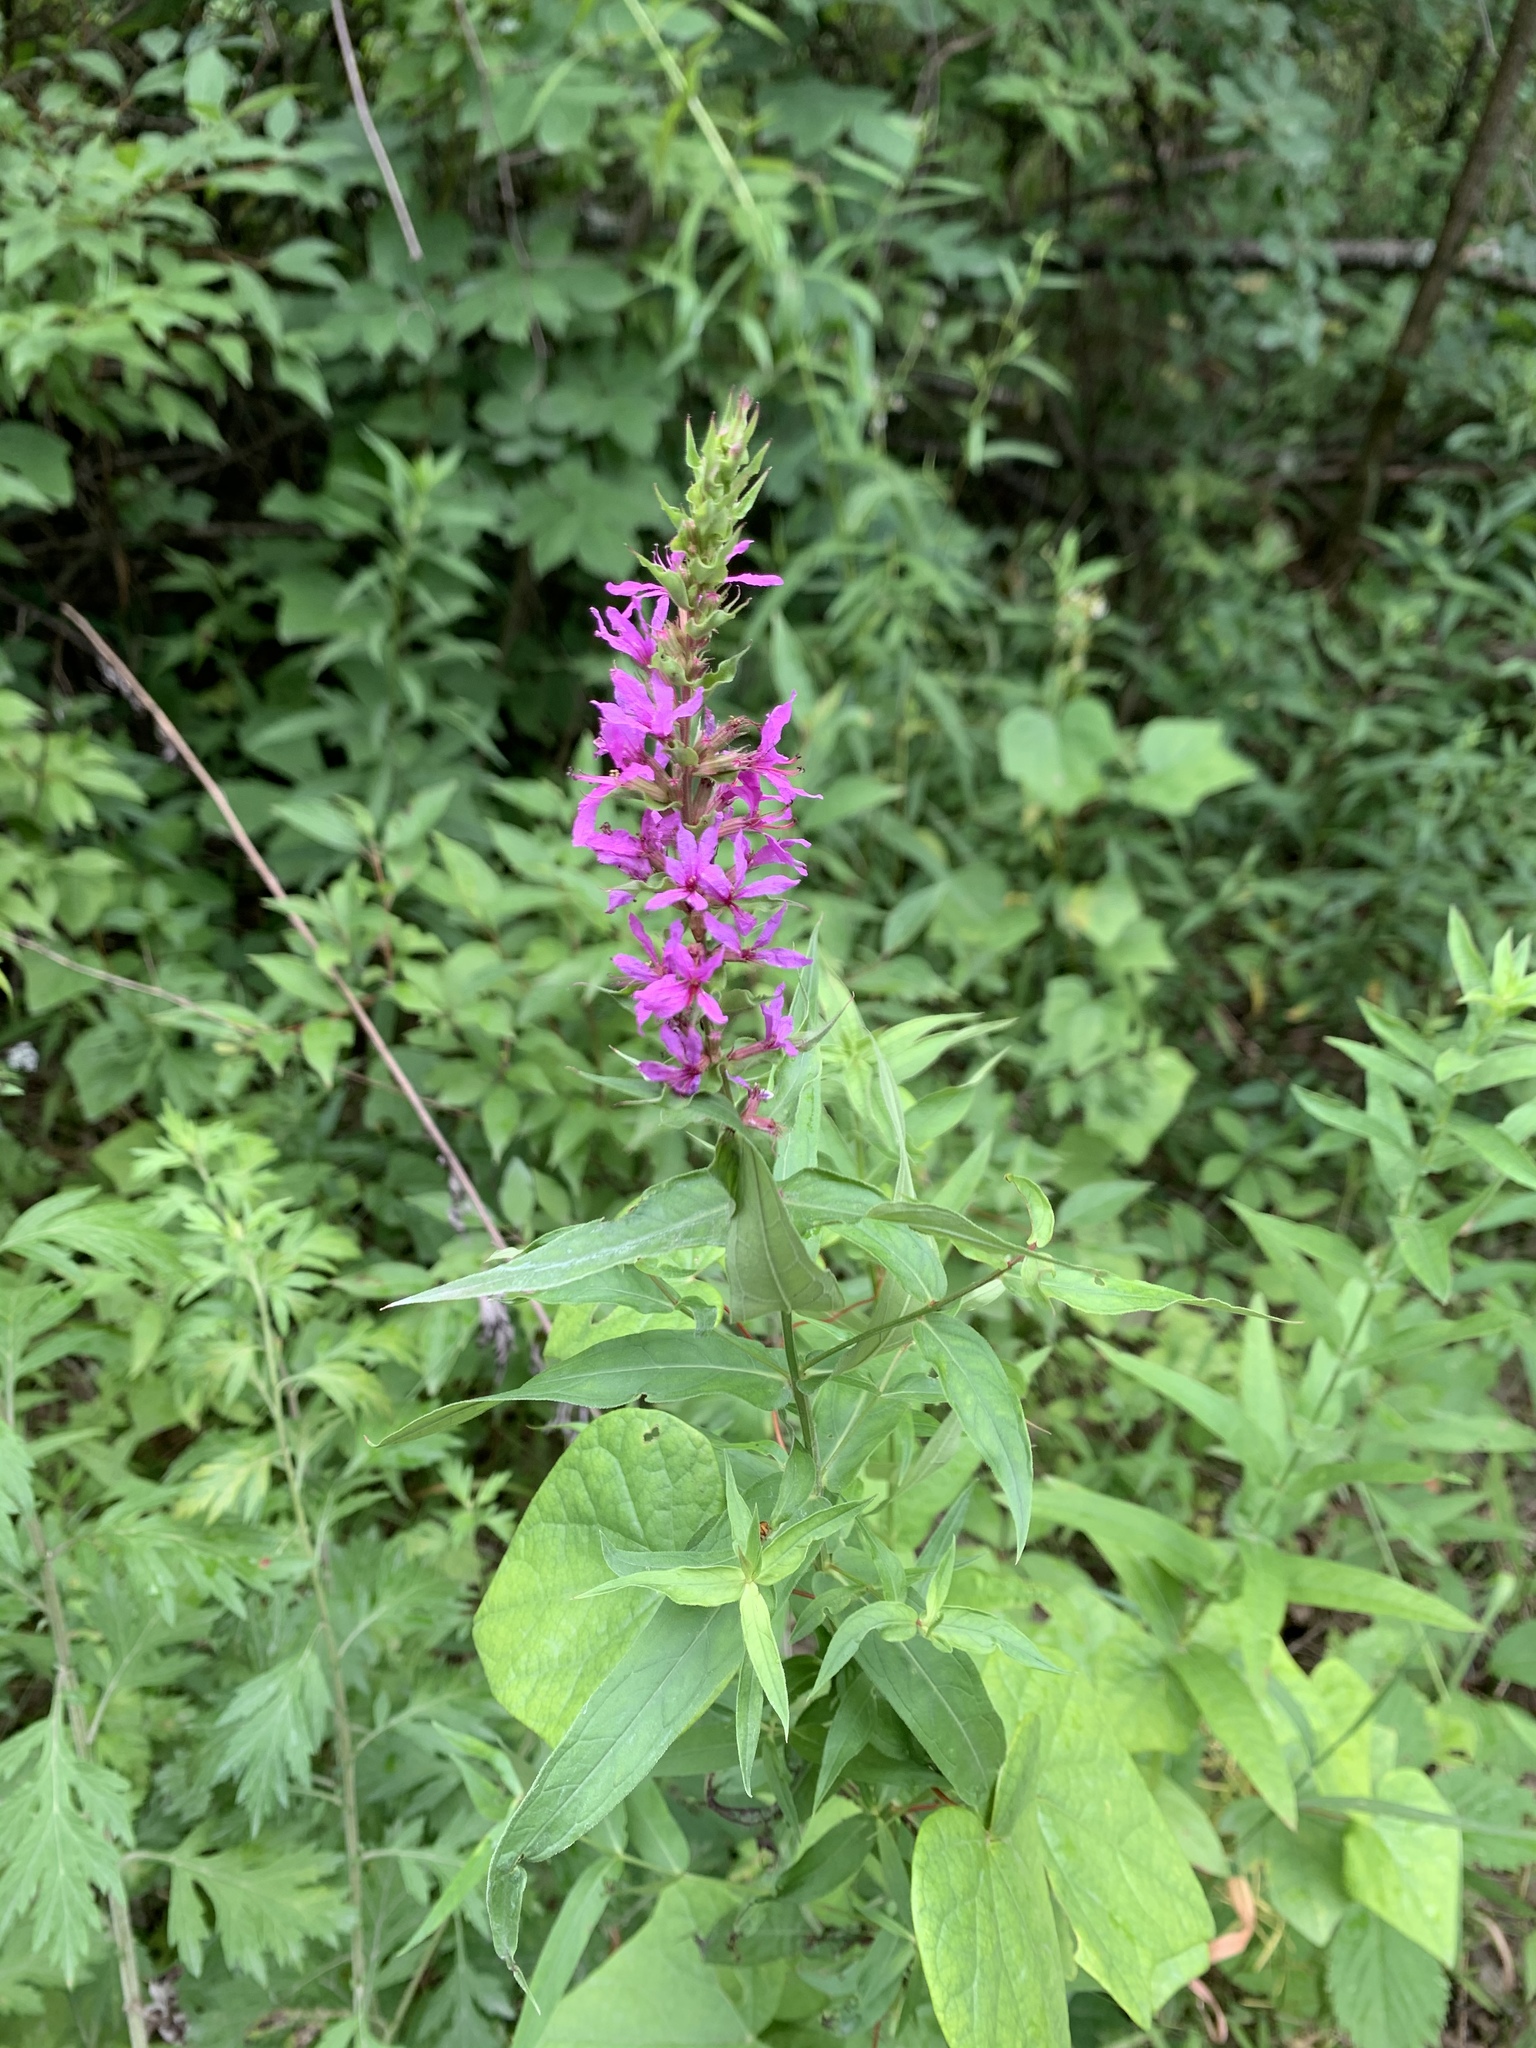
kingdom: Plantae
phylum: Tracheophyta
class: Magnoliopsida
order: Myrtales
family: Lythraceae
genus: Lythrum
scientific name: Lythrum salicaria
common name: Purple loosestrife
